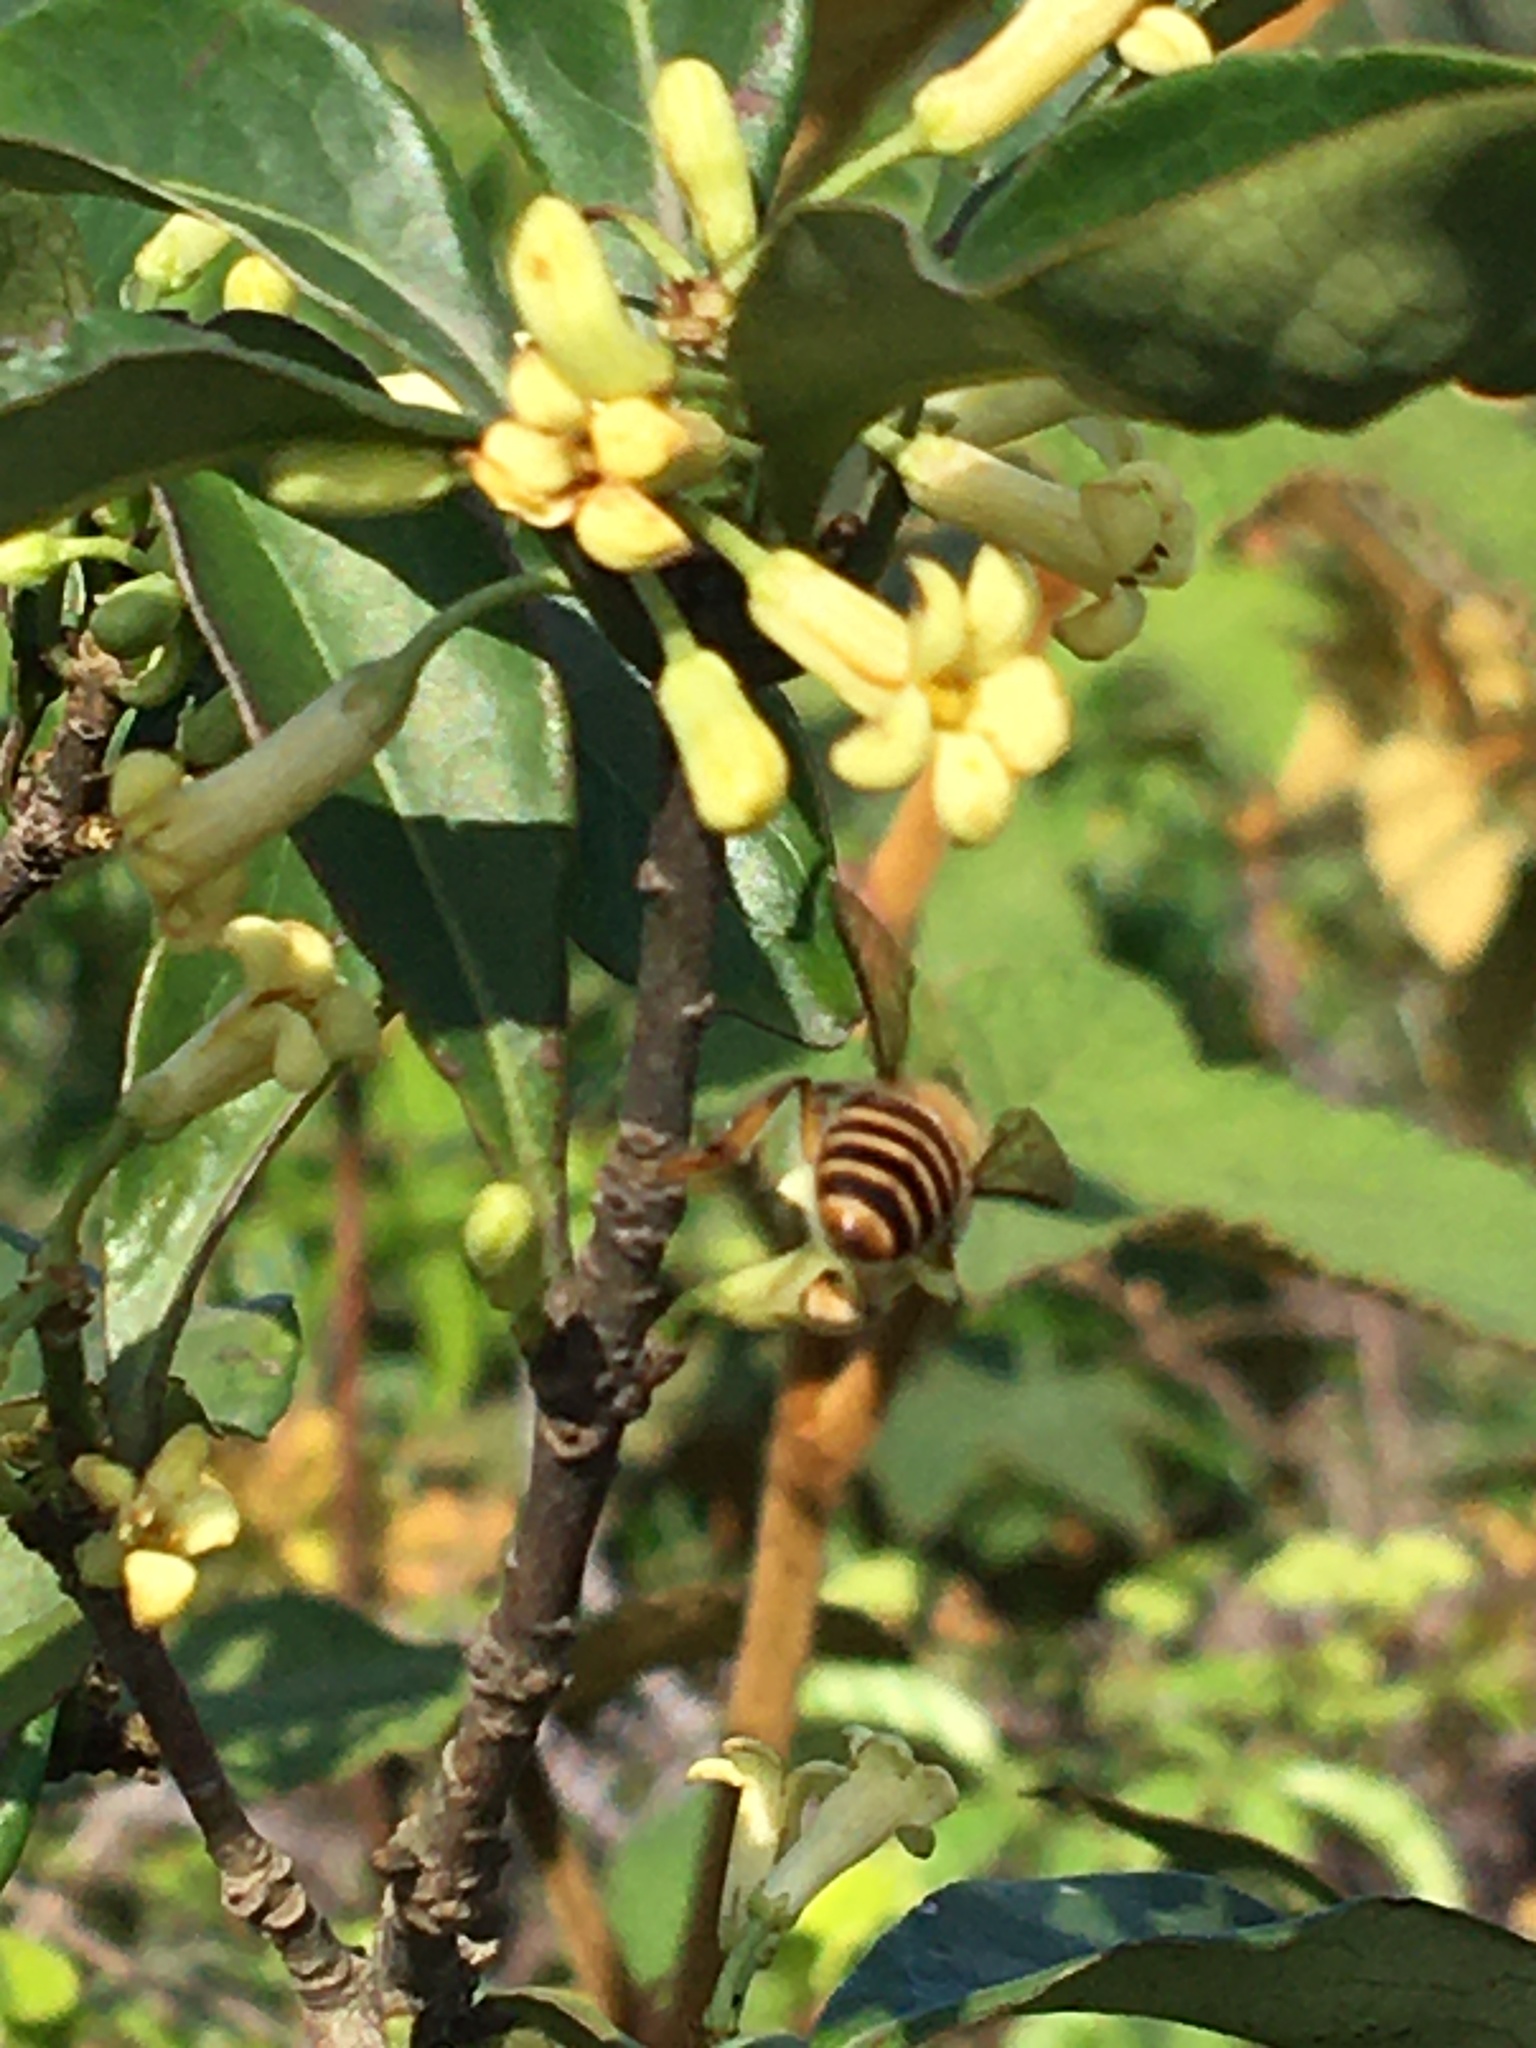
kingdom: Animalia
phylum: Arthropoda
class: Insecta
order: Hymenoptera
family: Apidae
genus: Apis
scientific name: Apis cerana
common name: Honey bee
